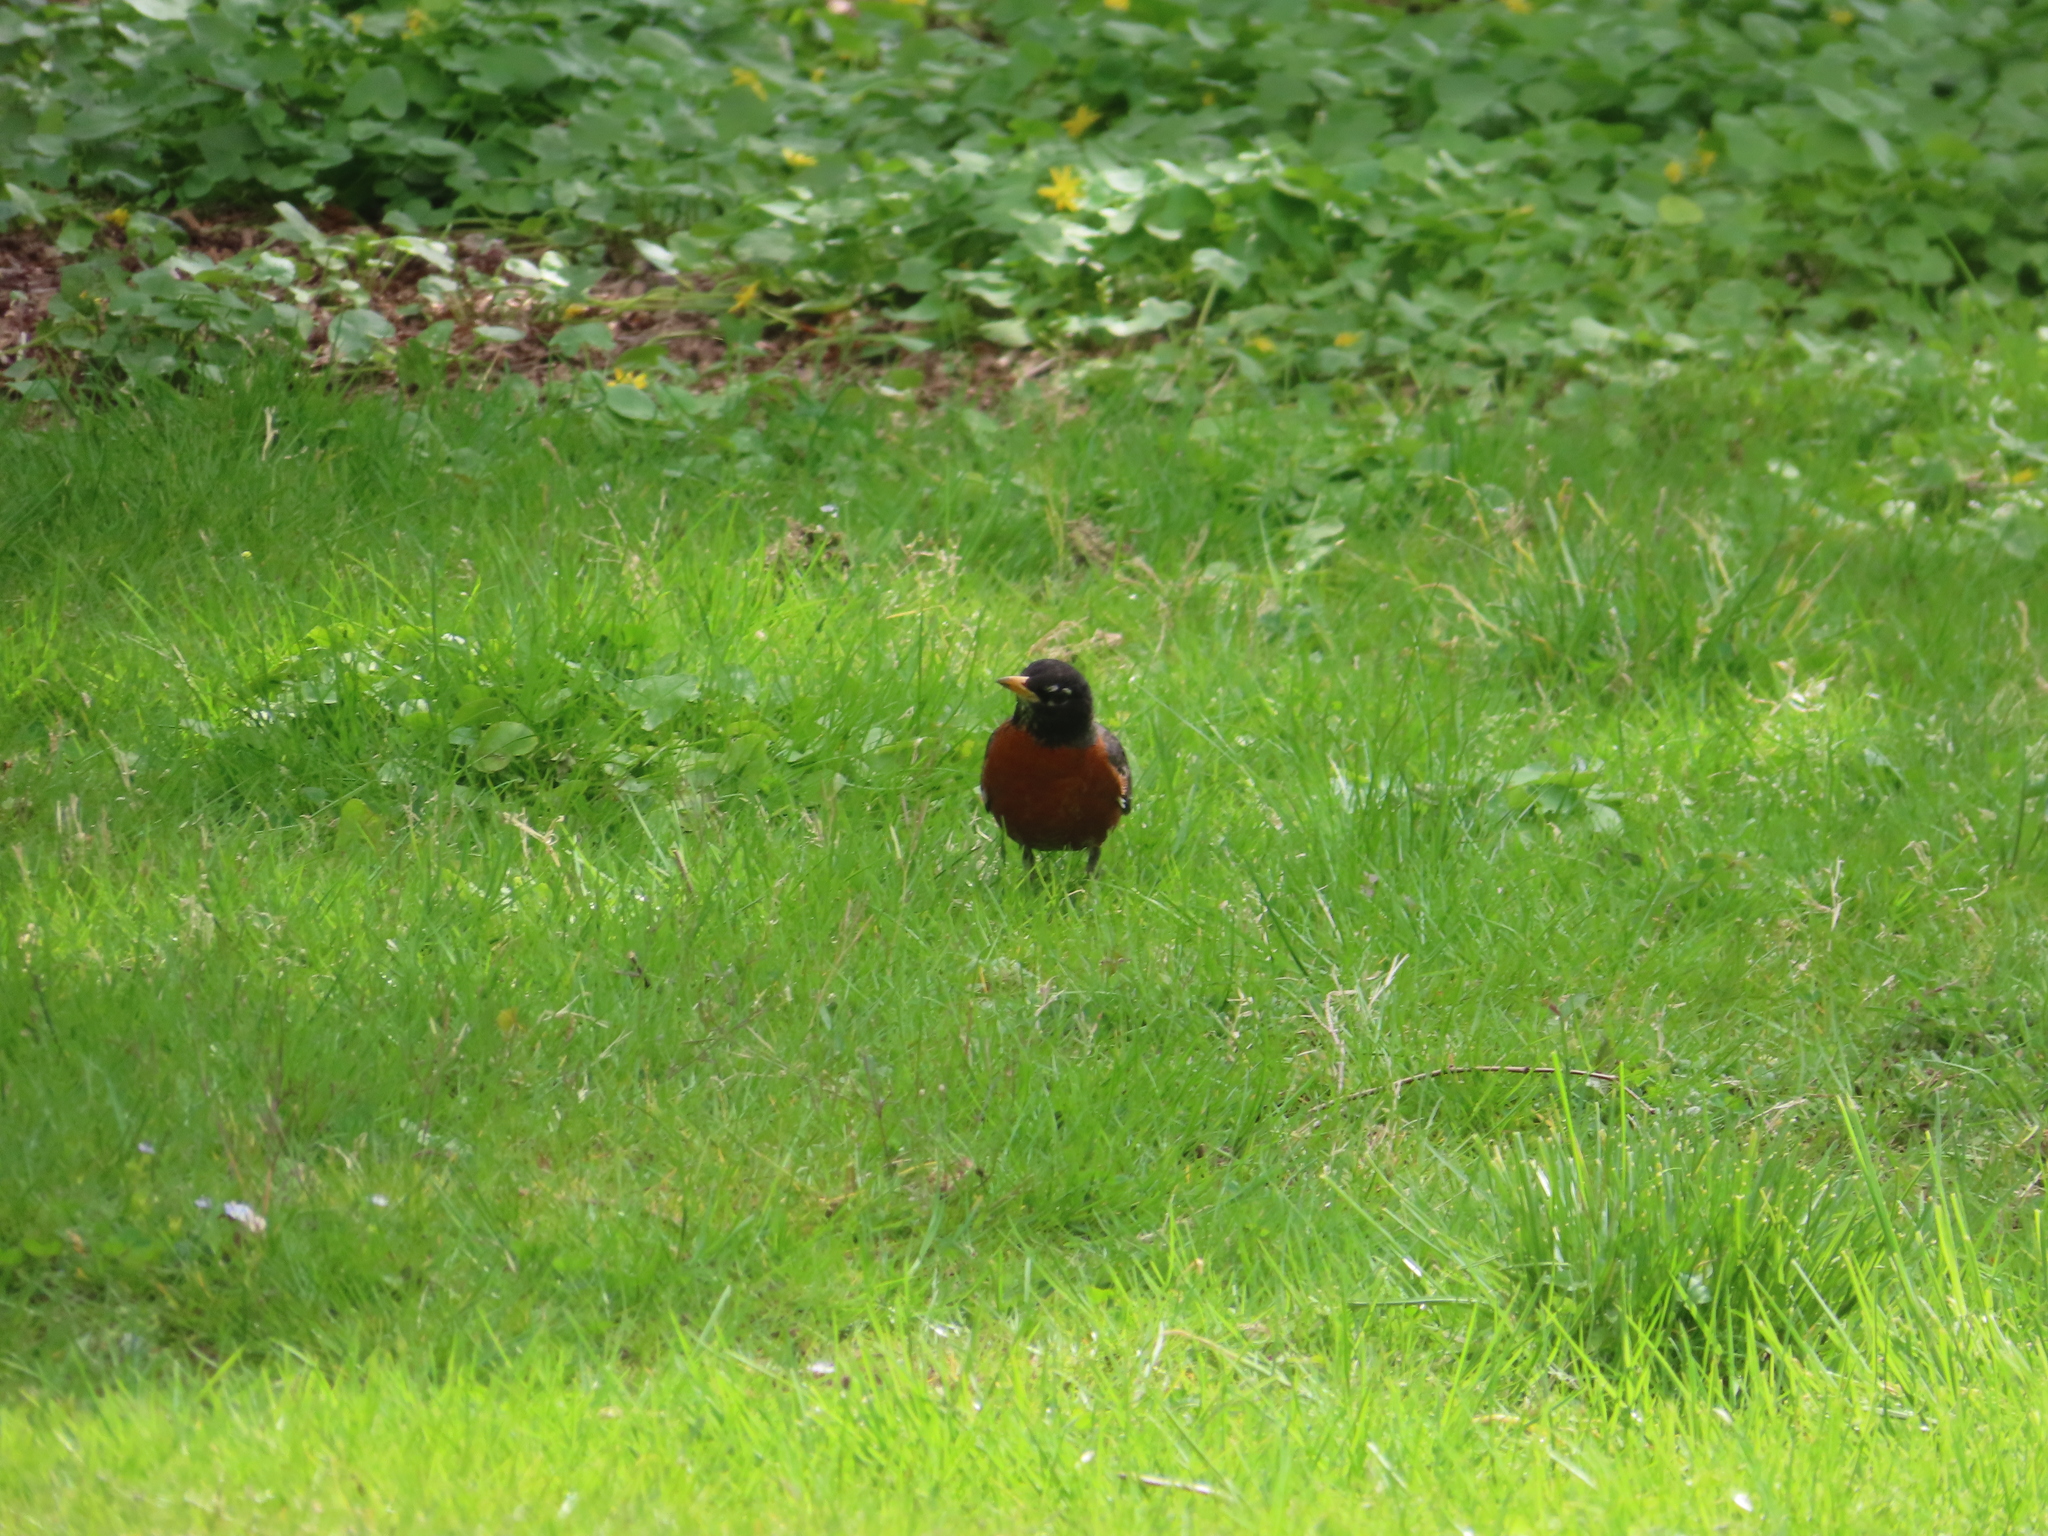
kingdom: Animalia
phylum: Chordata
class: Aves
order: Passeriformes
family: Turdidae
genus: Turdus
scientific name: Turdus migratorius
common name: American robin
